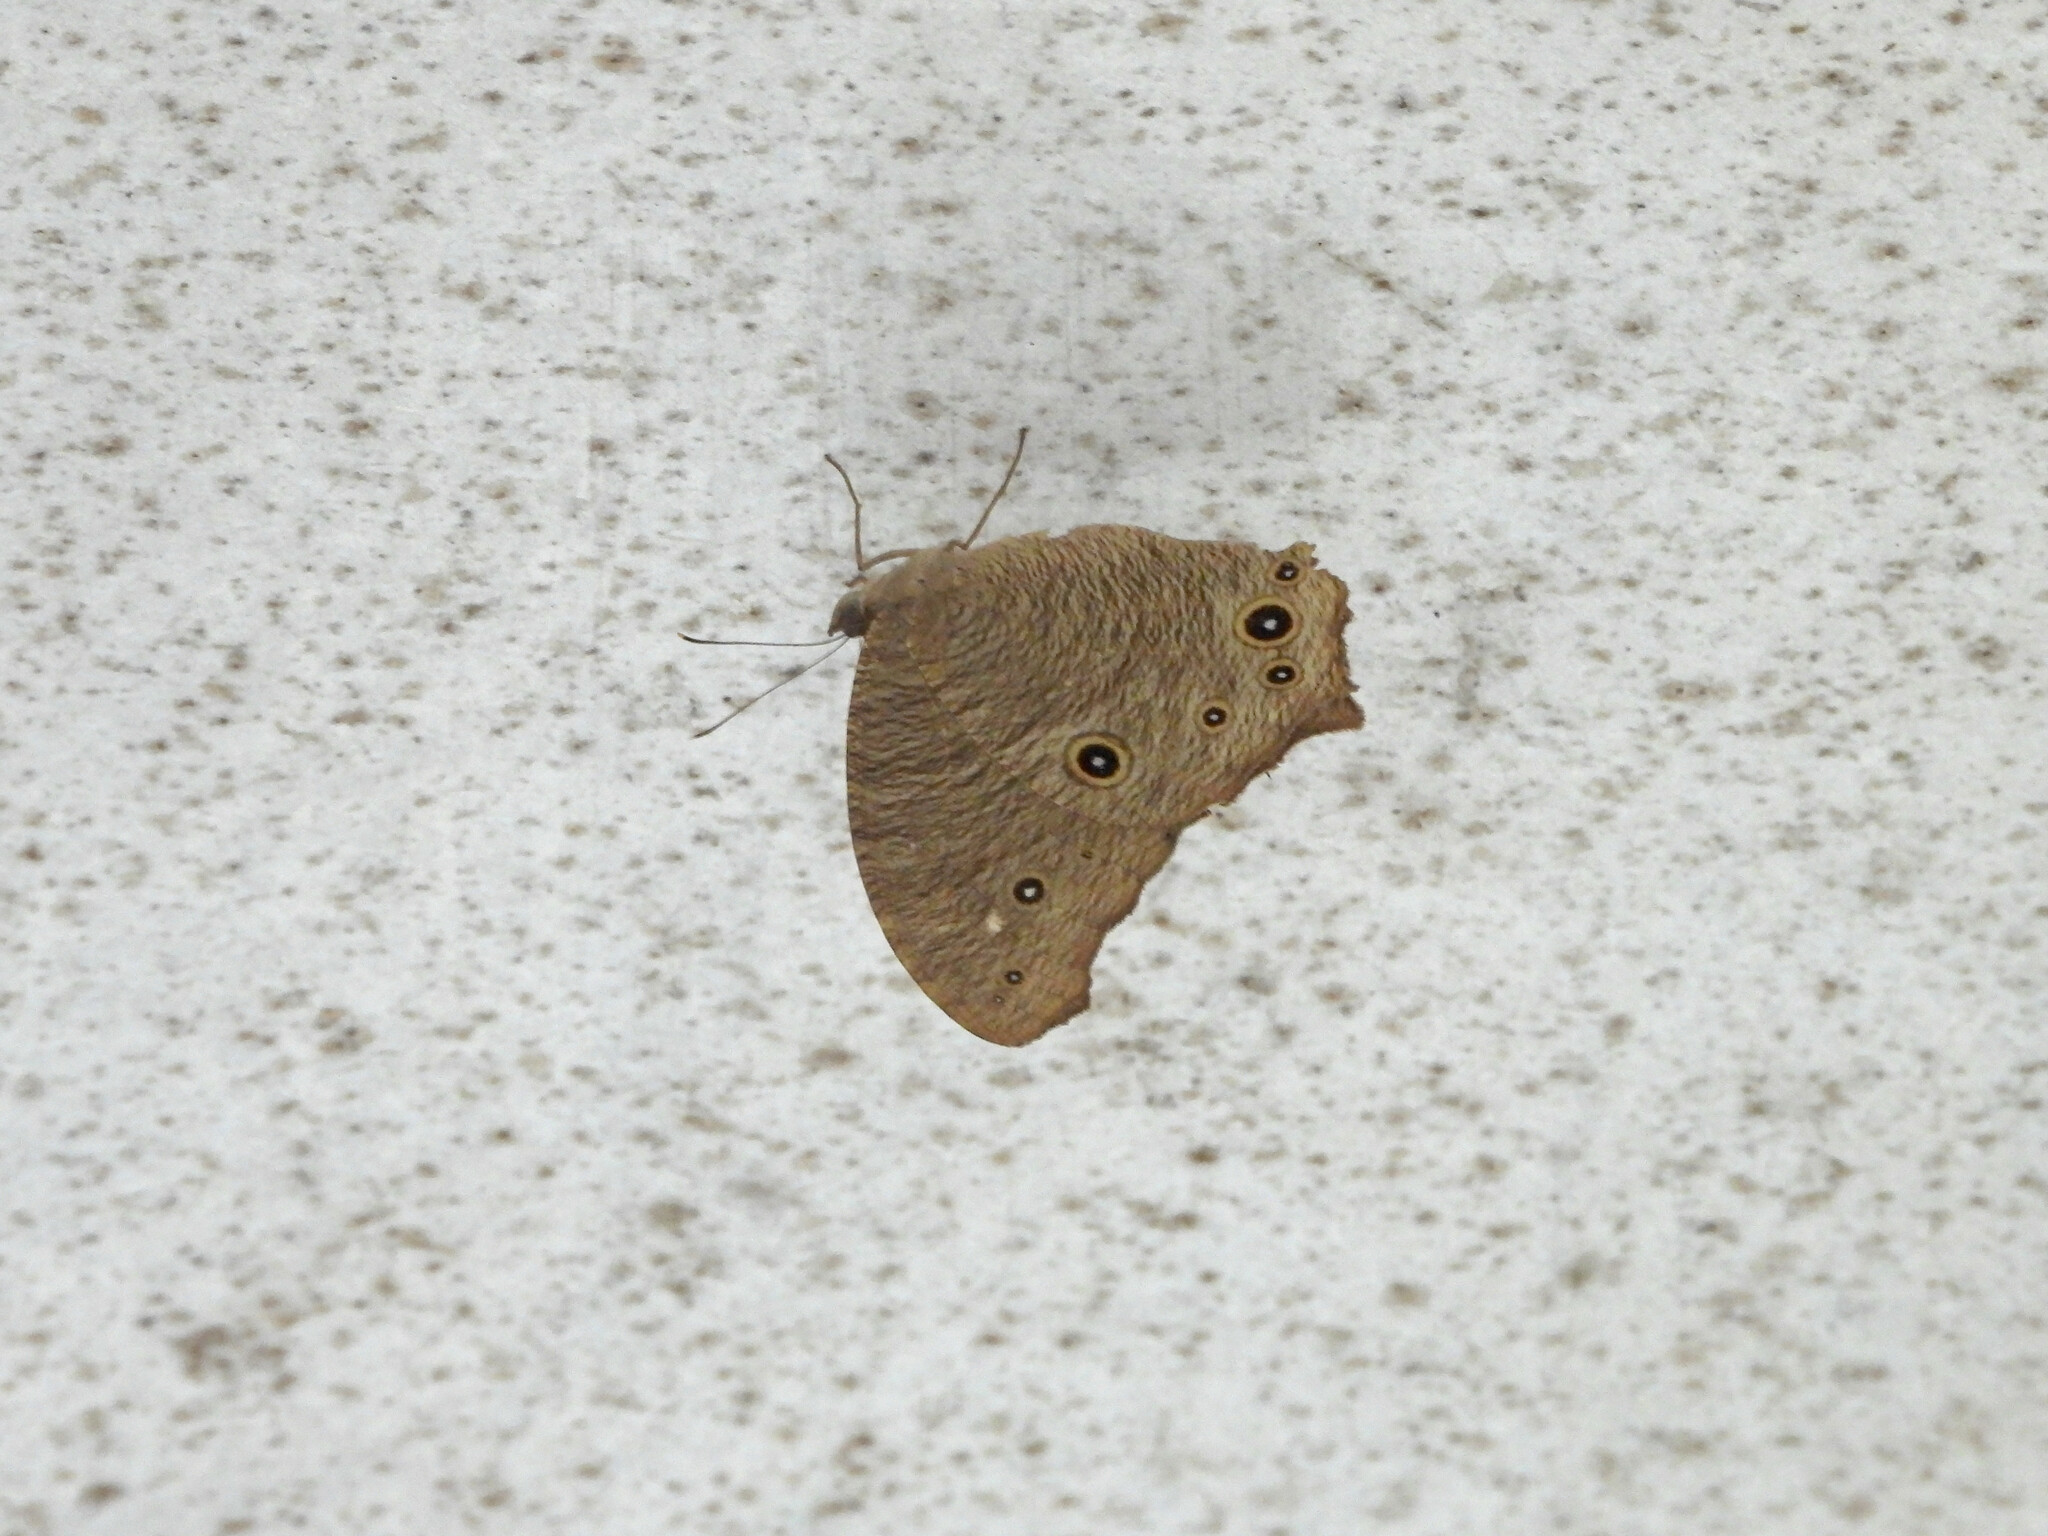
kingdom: Animalia
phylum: Arthropoda
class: Insecta
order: Lepidoptera
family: Nymphalidae
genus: Melanitis
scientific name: Melanitis leda
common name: Twilight brown
